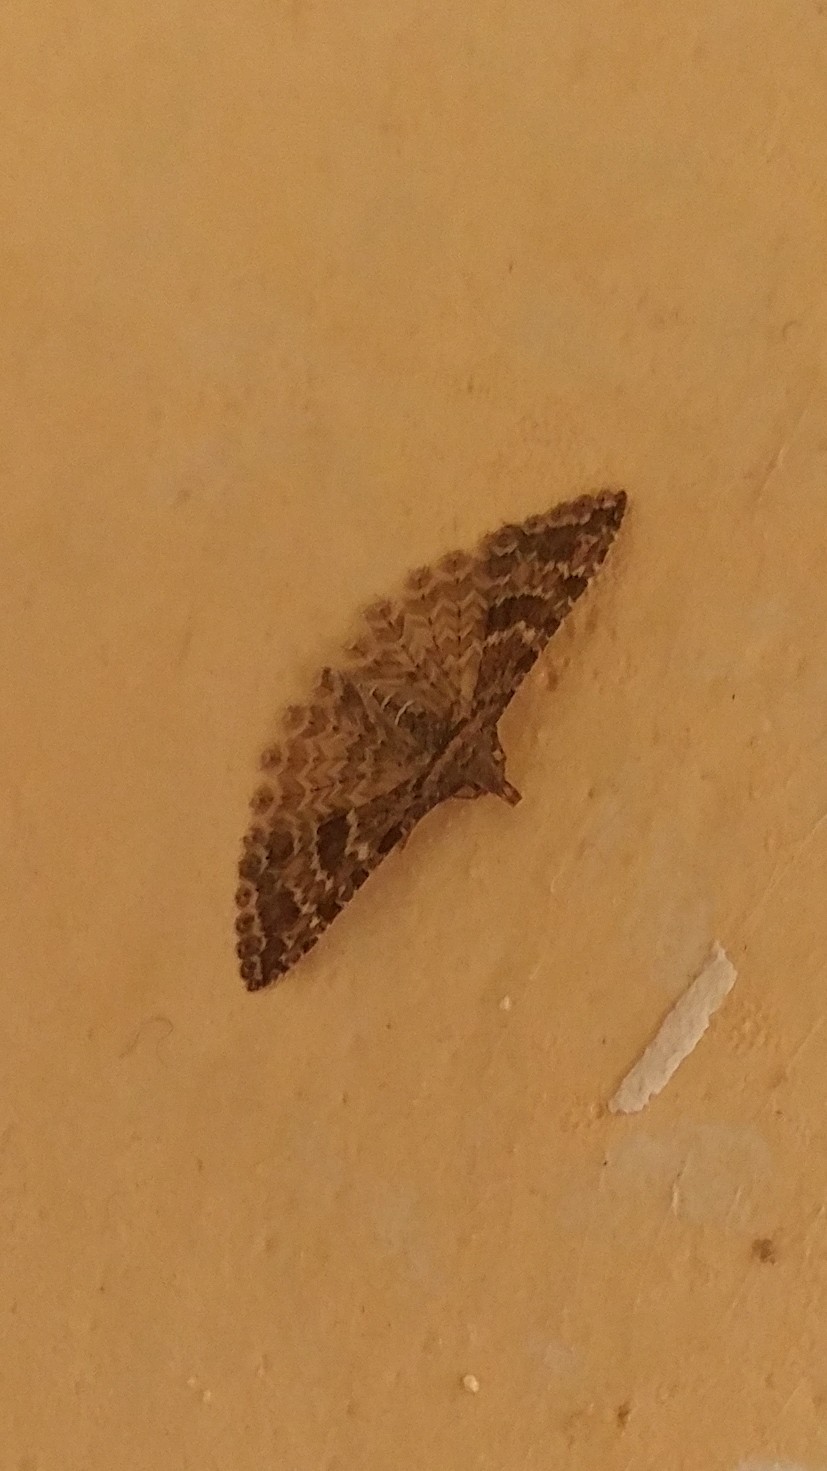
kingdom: Animalia
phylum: Arthropoda
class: Insecta
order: Lepidoptera
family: Alucitidae
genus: Alucita
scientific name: Alucita montana
